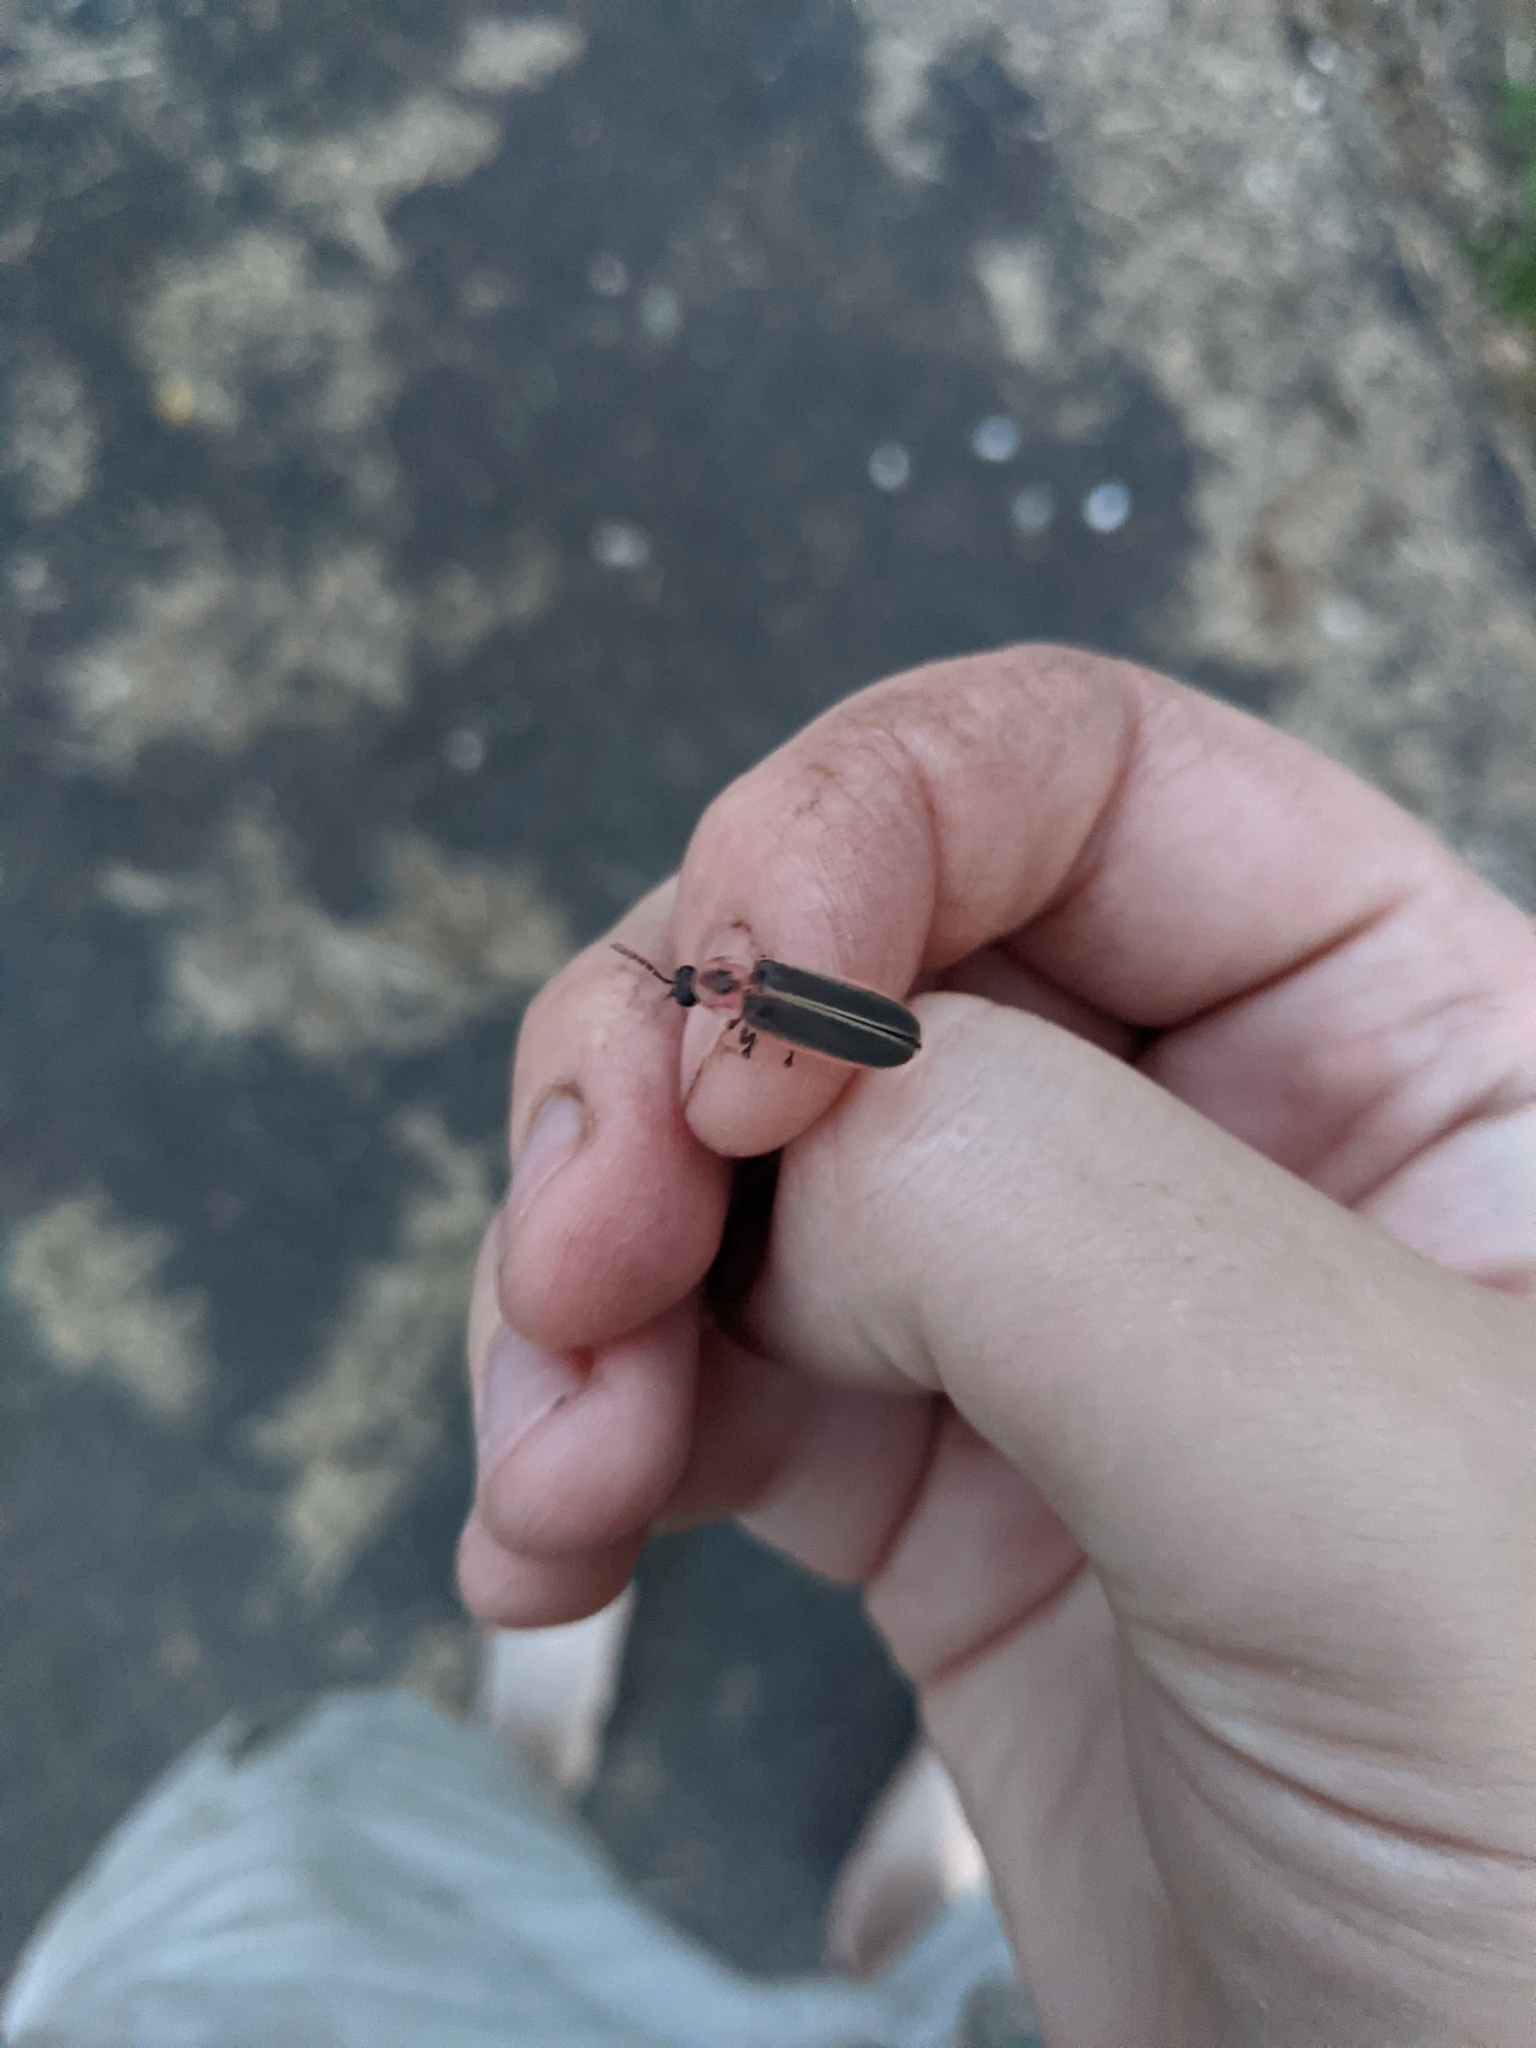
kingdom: Animalia
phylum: Arthropoda
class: Insecta
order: Coleoptera
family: Lampyridae
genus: Photinus
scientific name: Photinus pyralis
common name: Big dipper firefly
